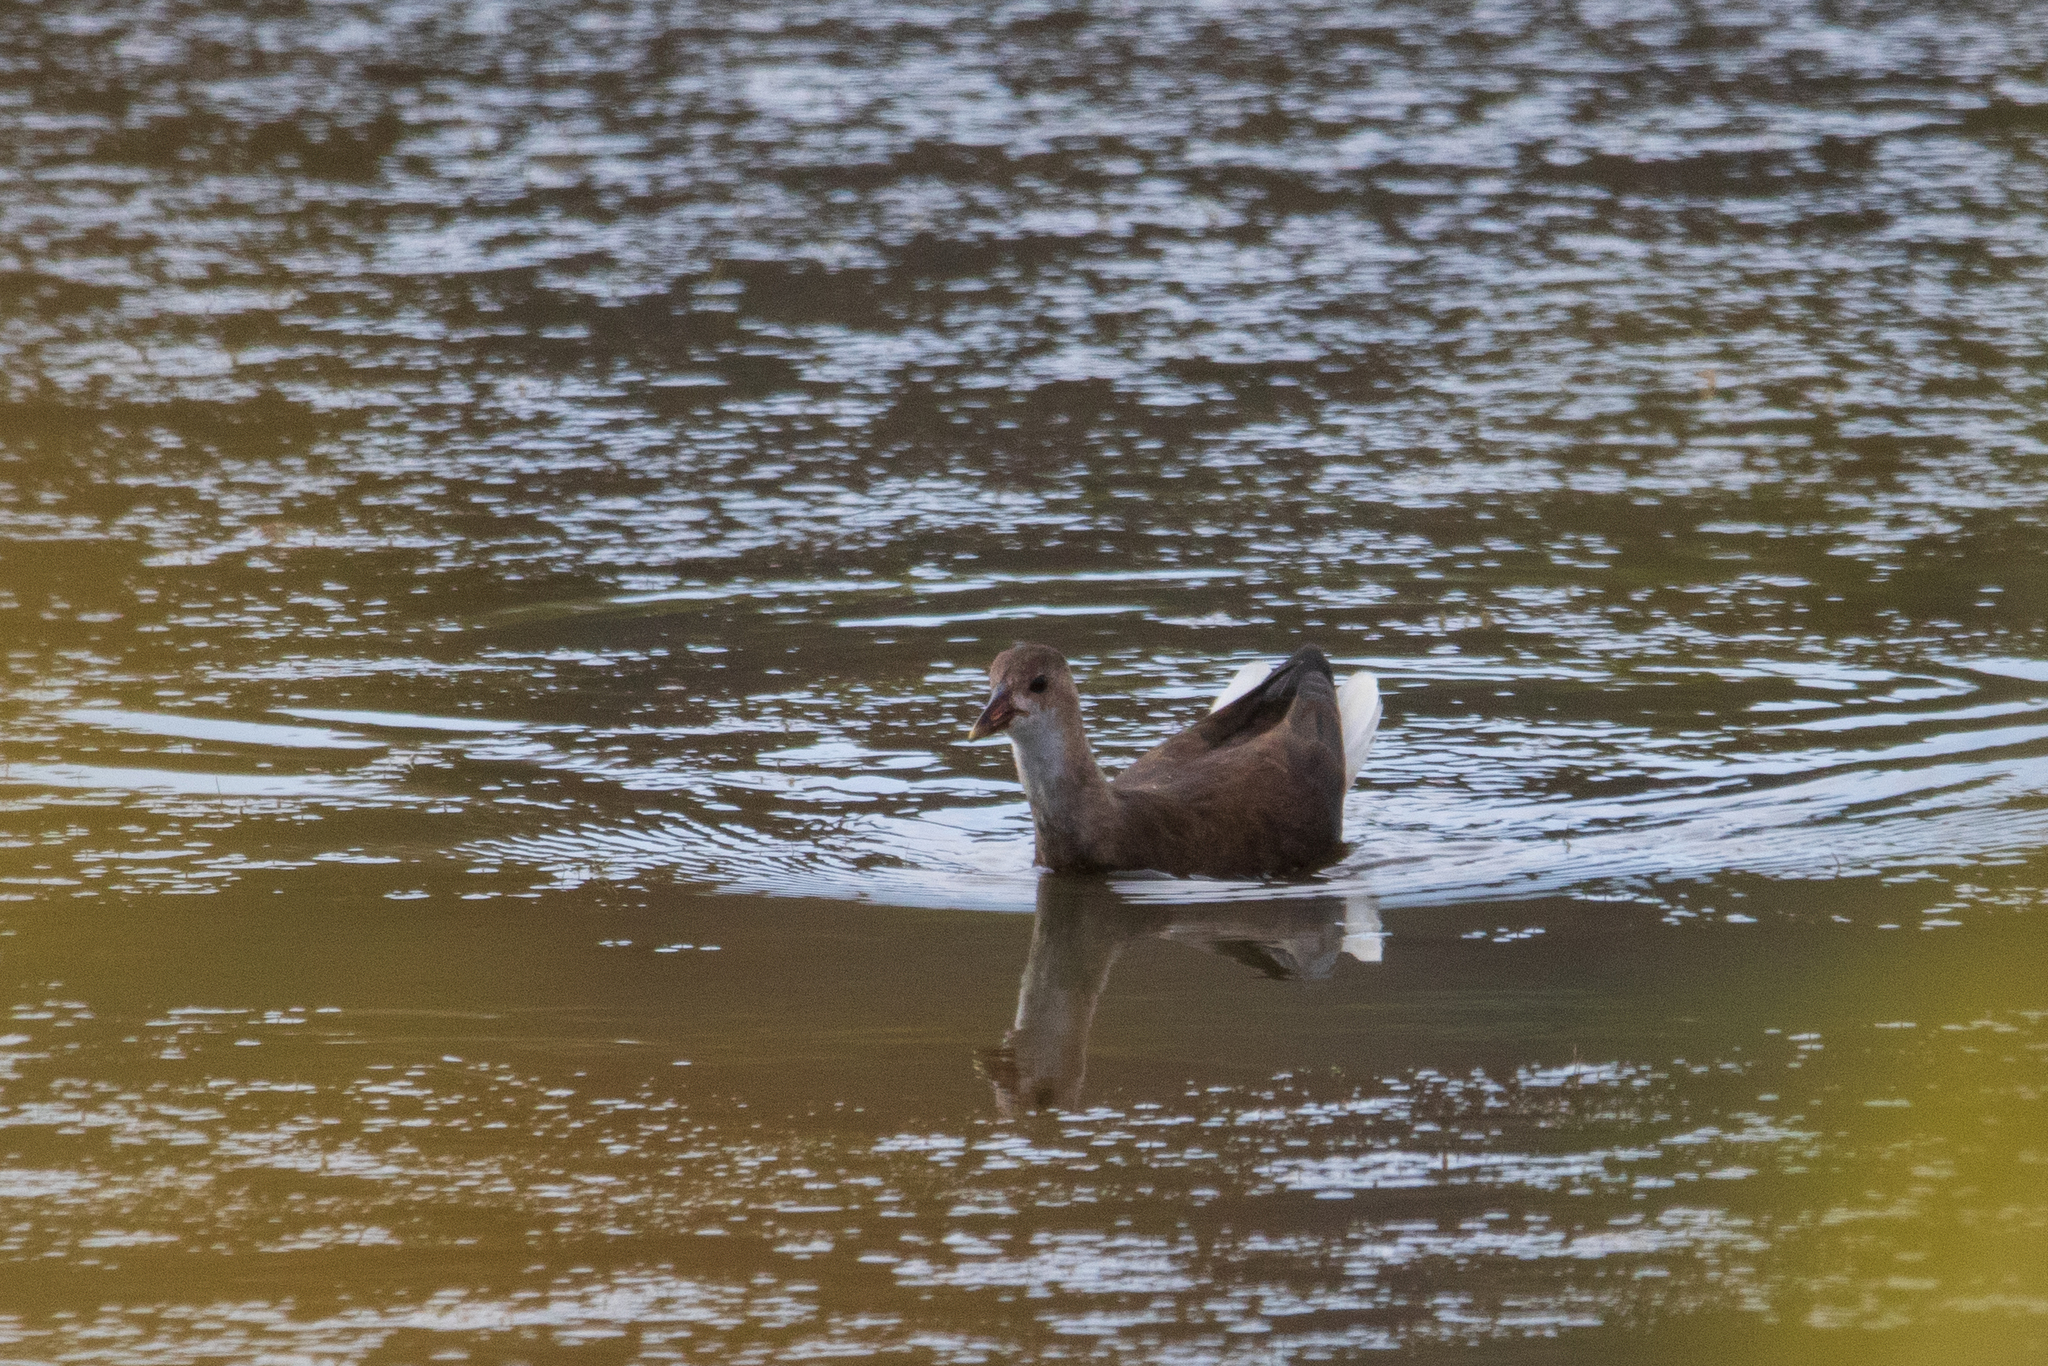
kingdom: Animalia
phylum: Chordata
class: Aves
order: Gruiformes
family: Rallidae
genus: Gallinula
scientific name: Gallinula chloropus
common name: Common moorhen
